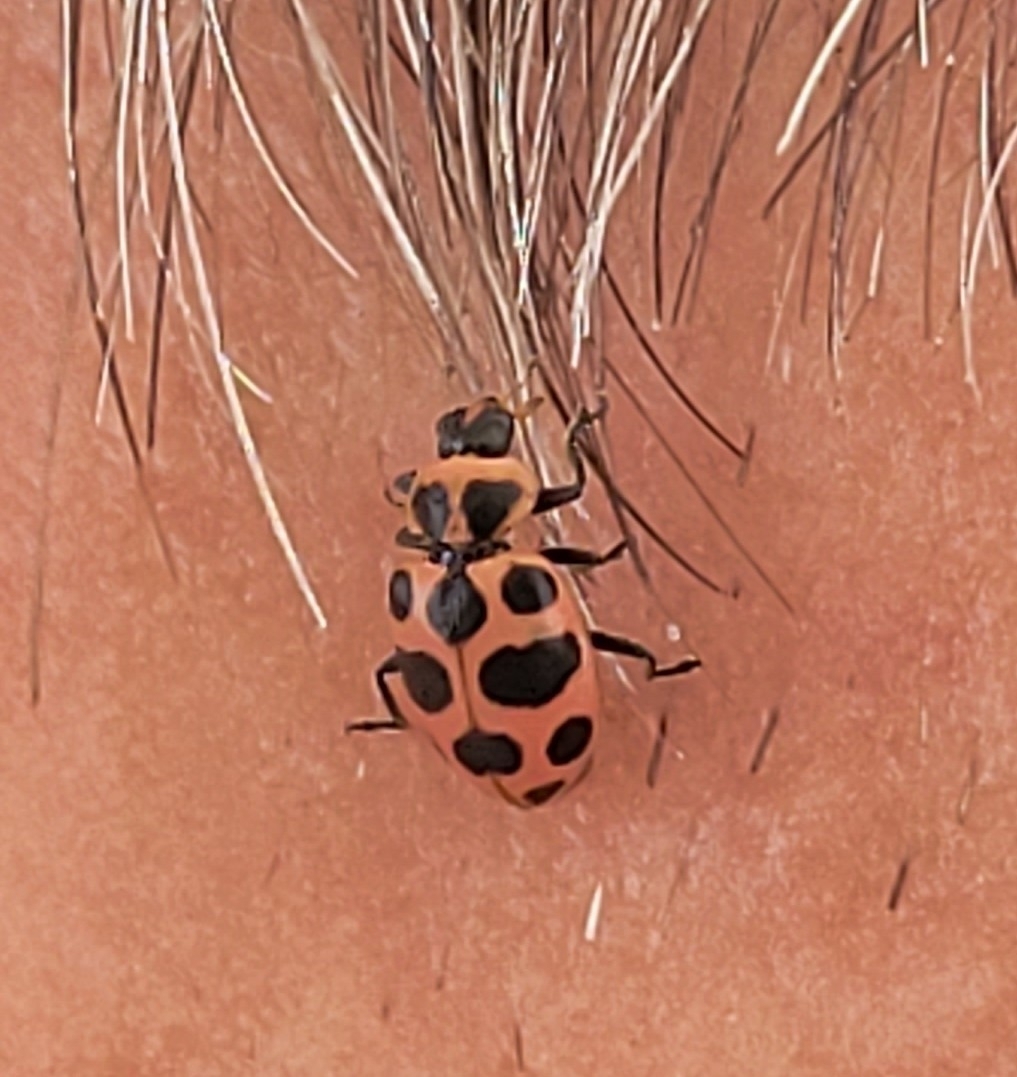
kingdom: Animalia
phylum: Arthropoda
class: Insecta
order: Coleoptera
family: Coccinellidae
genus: Coleomegilla
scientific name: Coleomegilla maculata
